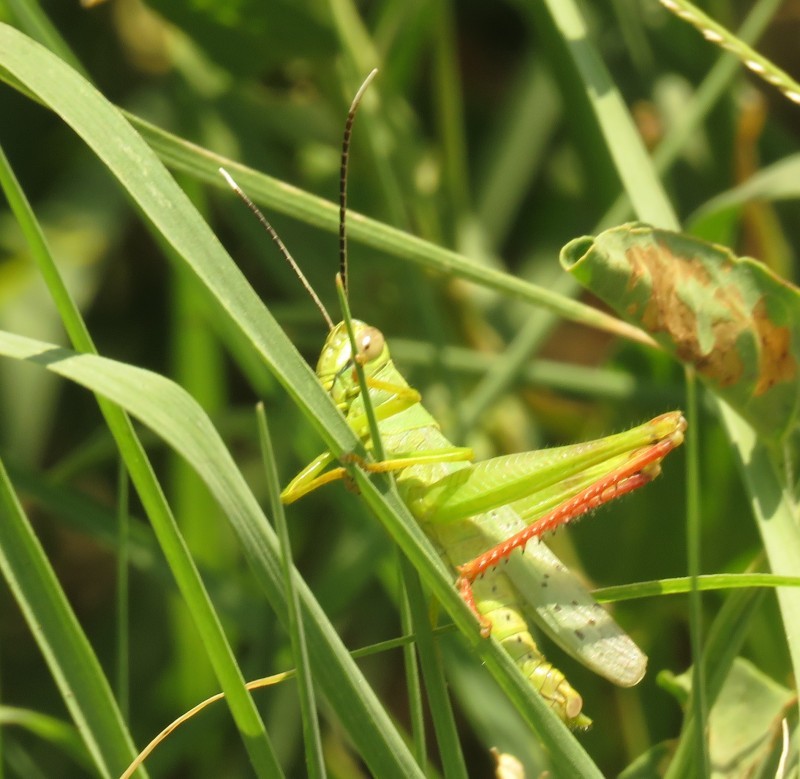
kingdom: Animalia
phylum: Arthropoda
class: Insecta
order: Orthoptera
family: Acrididae
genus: Heteracris
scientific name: Heteracris pterosticha
